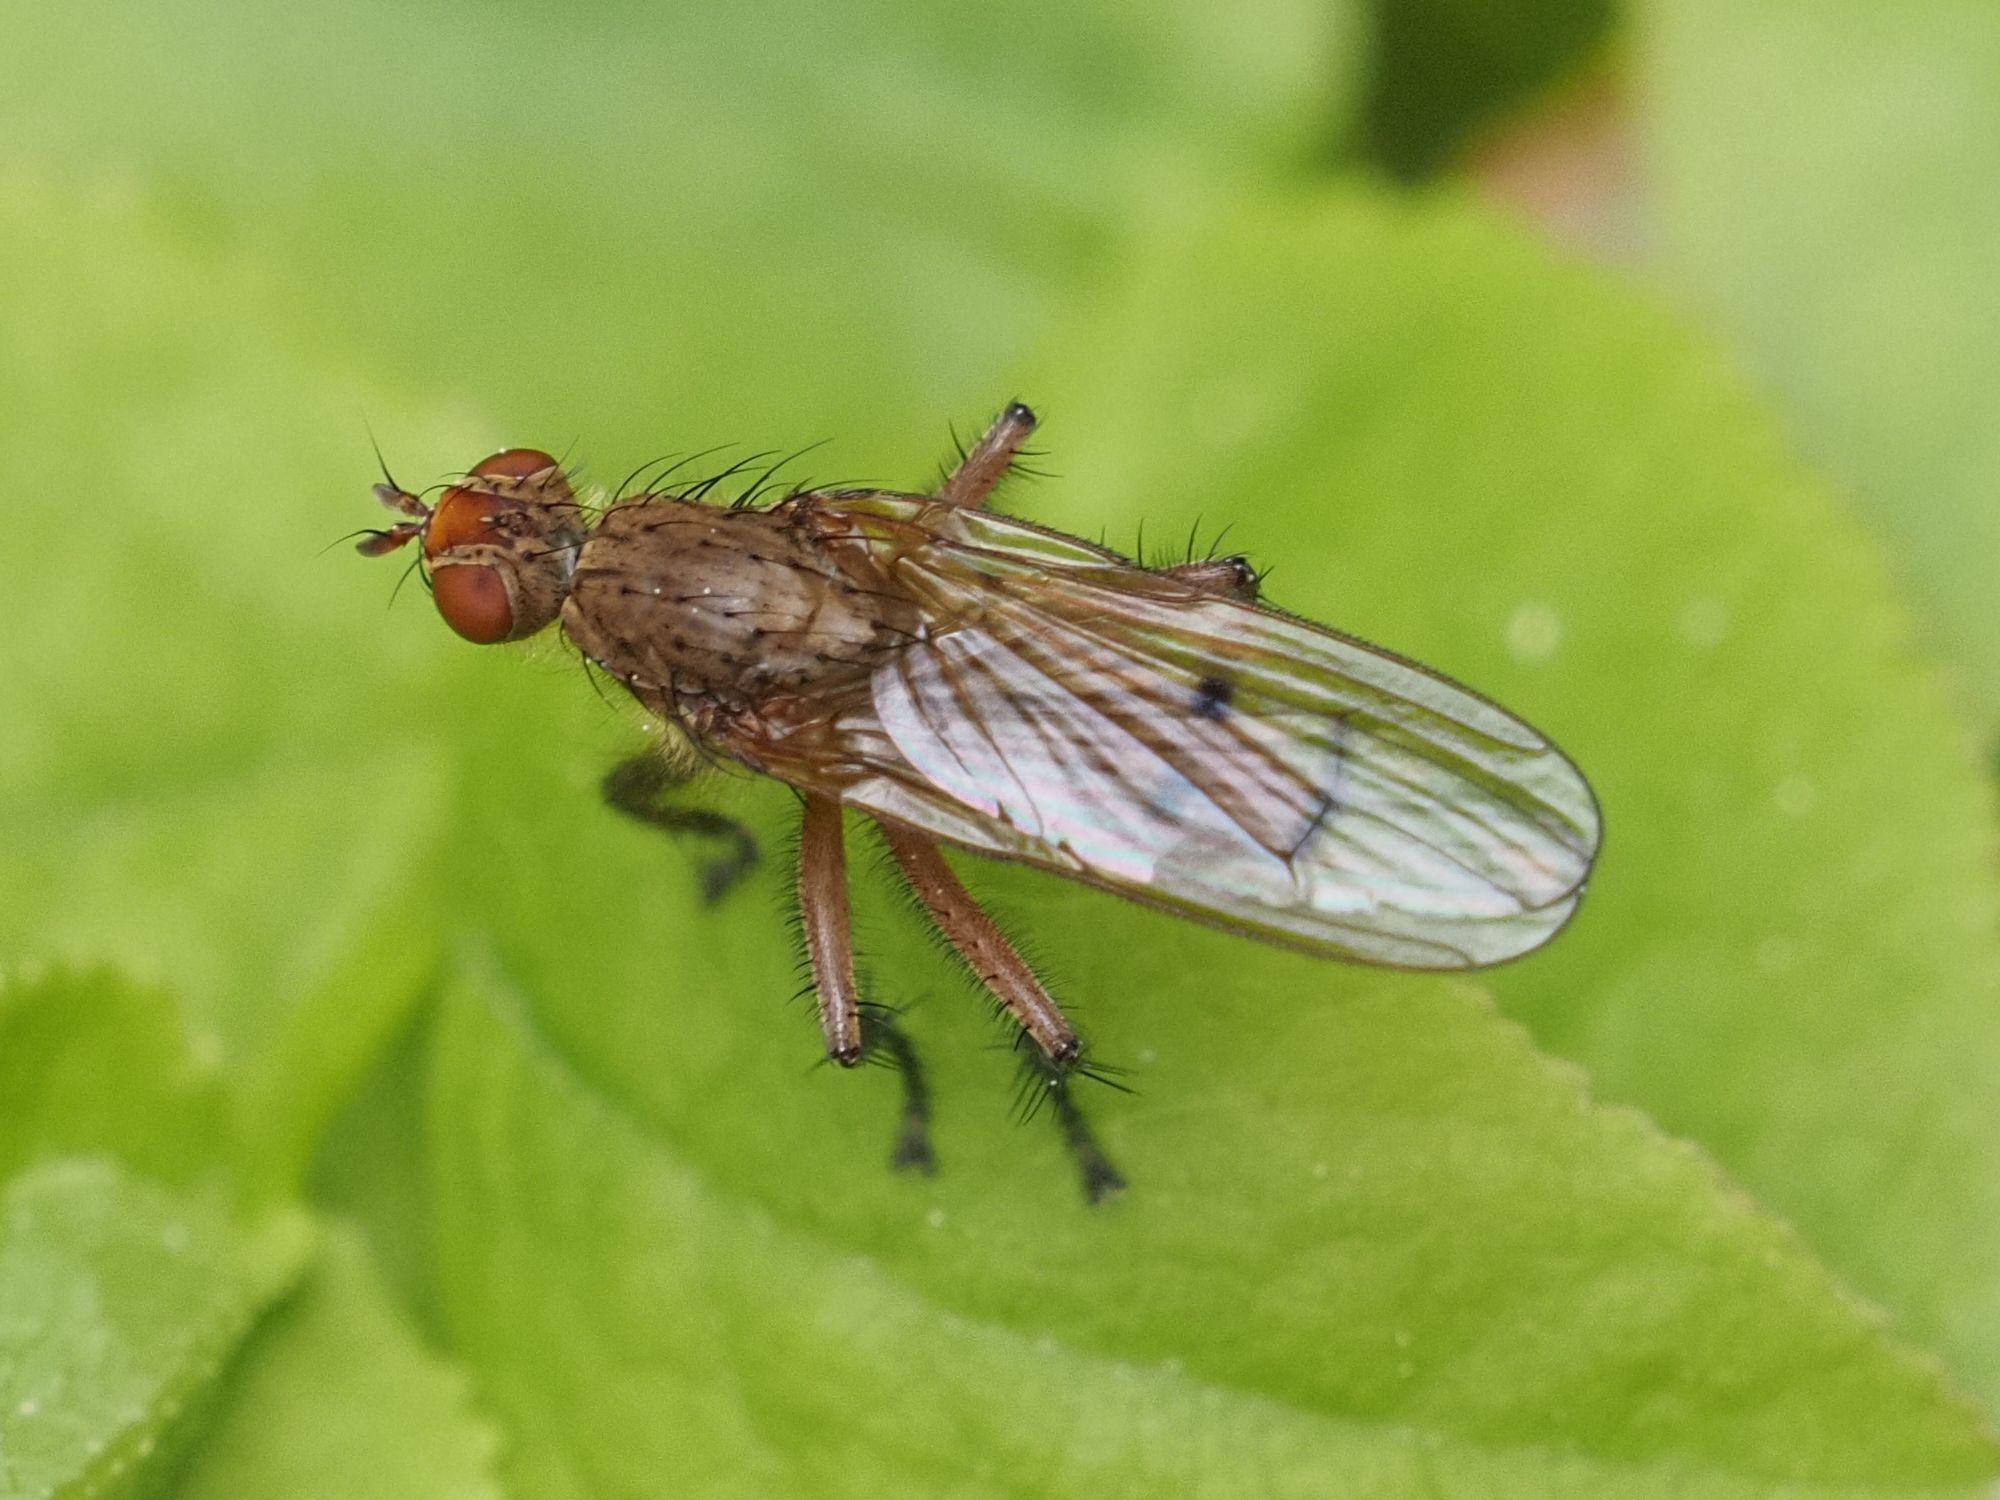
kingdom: Animalia
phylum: Arthropoda
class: Insecta
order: Diptera
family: Scathophagidae
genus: Scathophaga
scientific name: Scathophaga furcata
